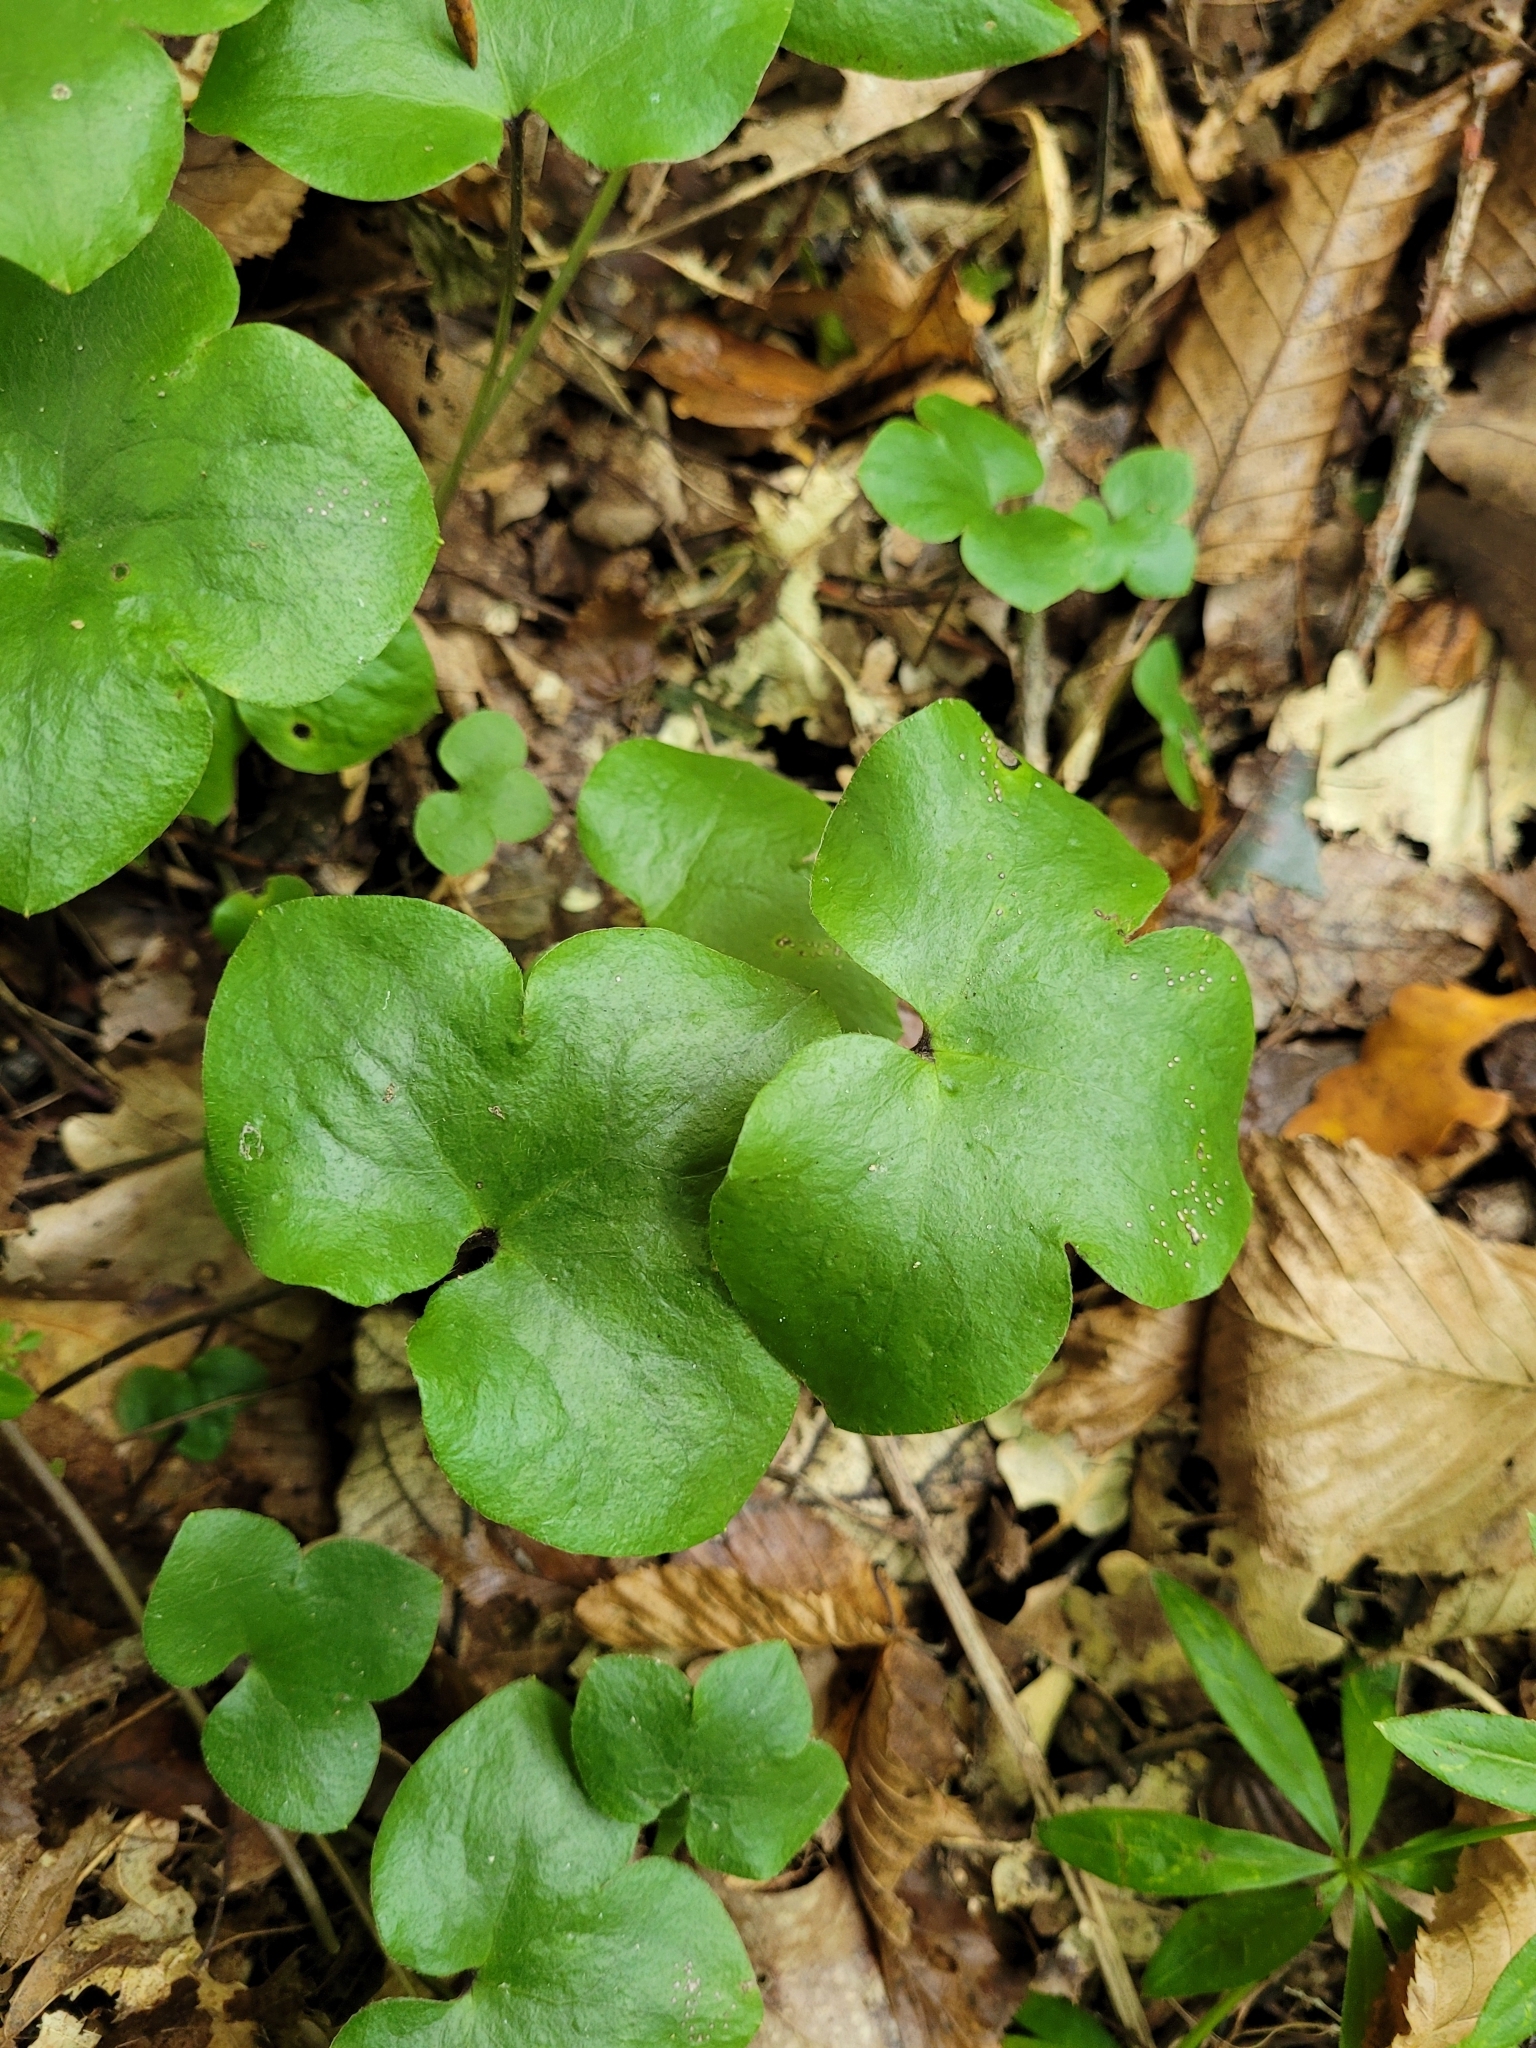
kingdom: Plantae
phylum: Tracheophyta
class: Magnoliopsida
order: Ranunculales
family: Ranunculaceae
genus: Hepatica
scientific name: Hepatica nobilis
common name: Liverleaf
